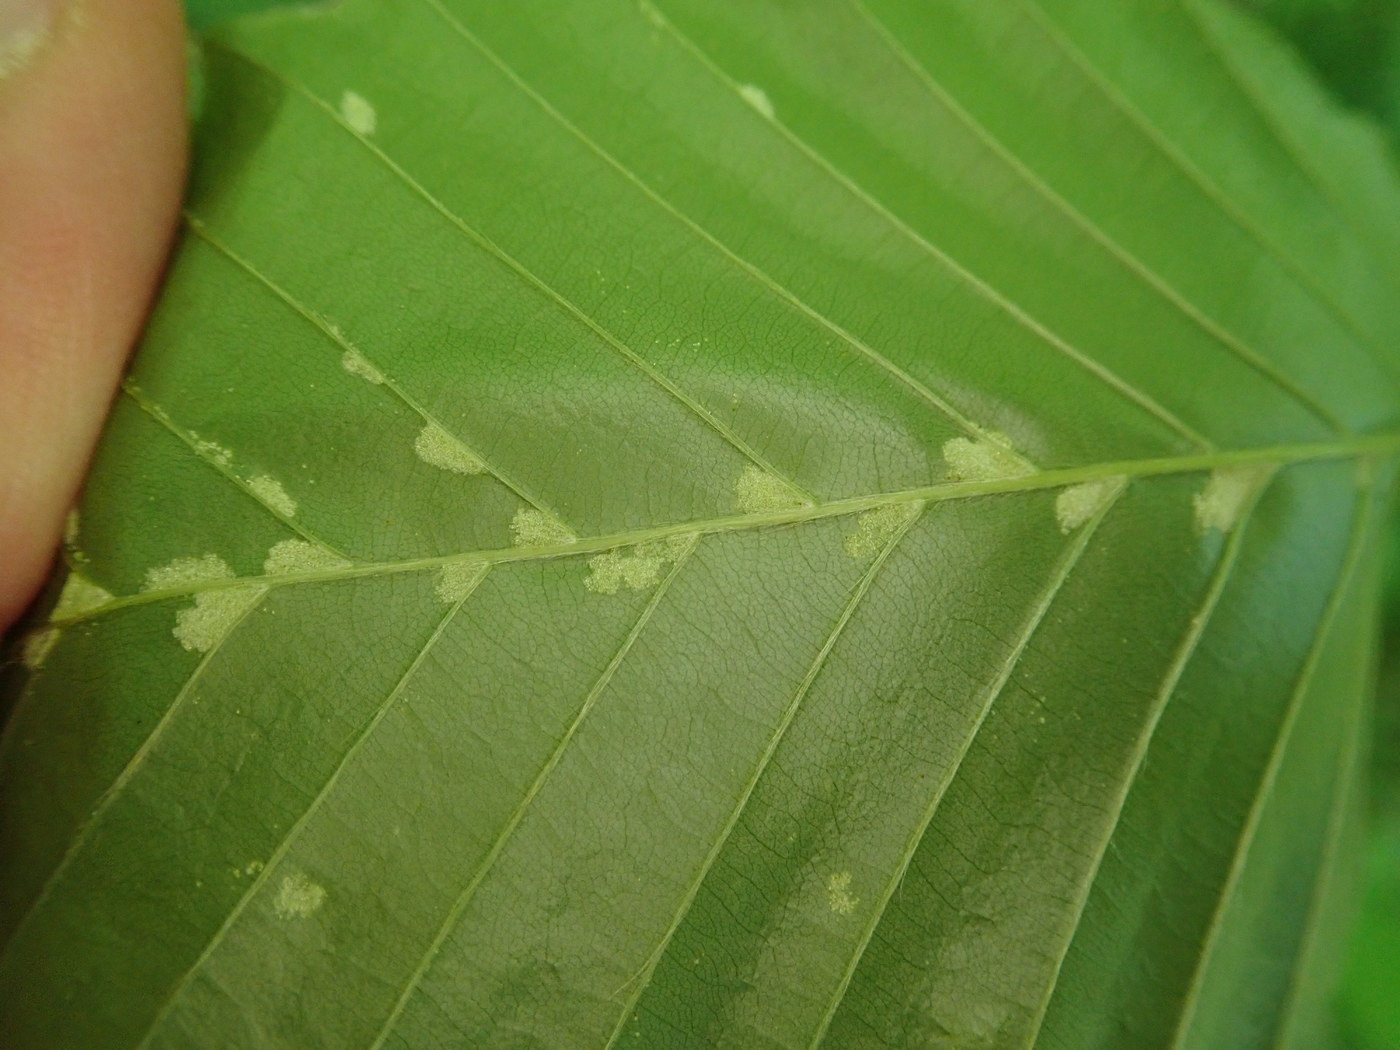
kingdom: Animalia
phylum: Arthropoda
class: Arachnida
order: Trombidiformes
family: Eriophyidae
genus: Acalitus
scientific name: Acalitus
